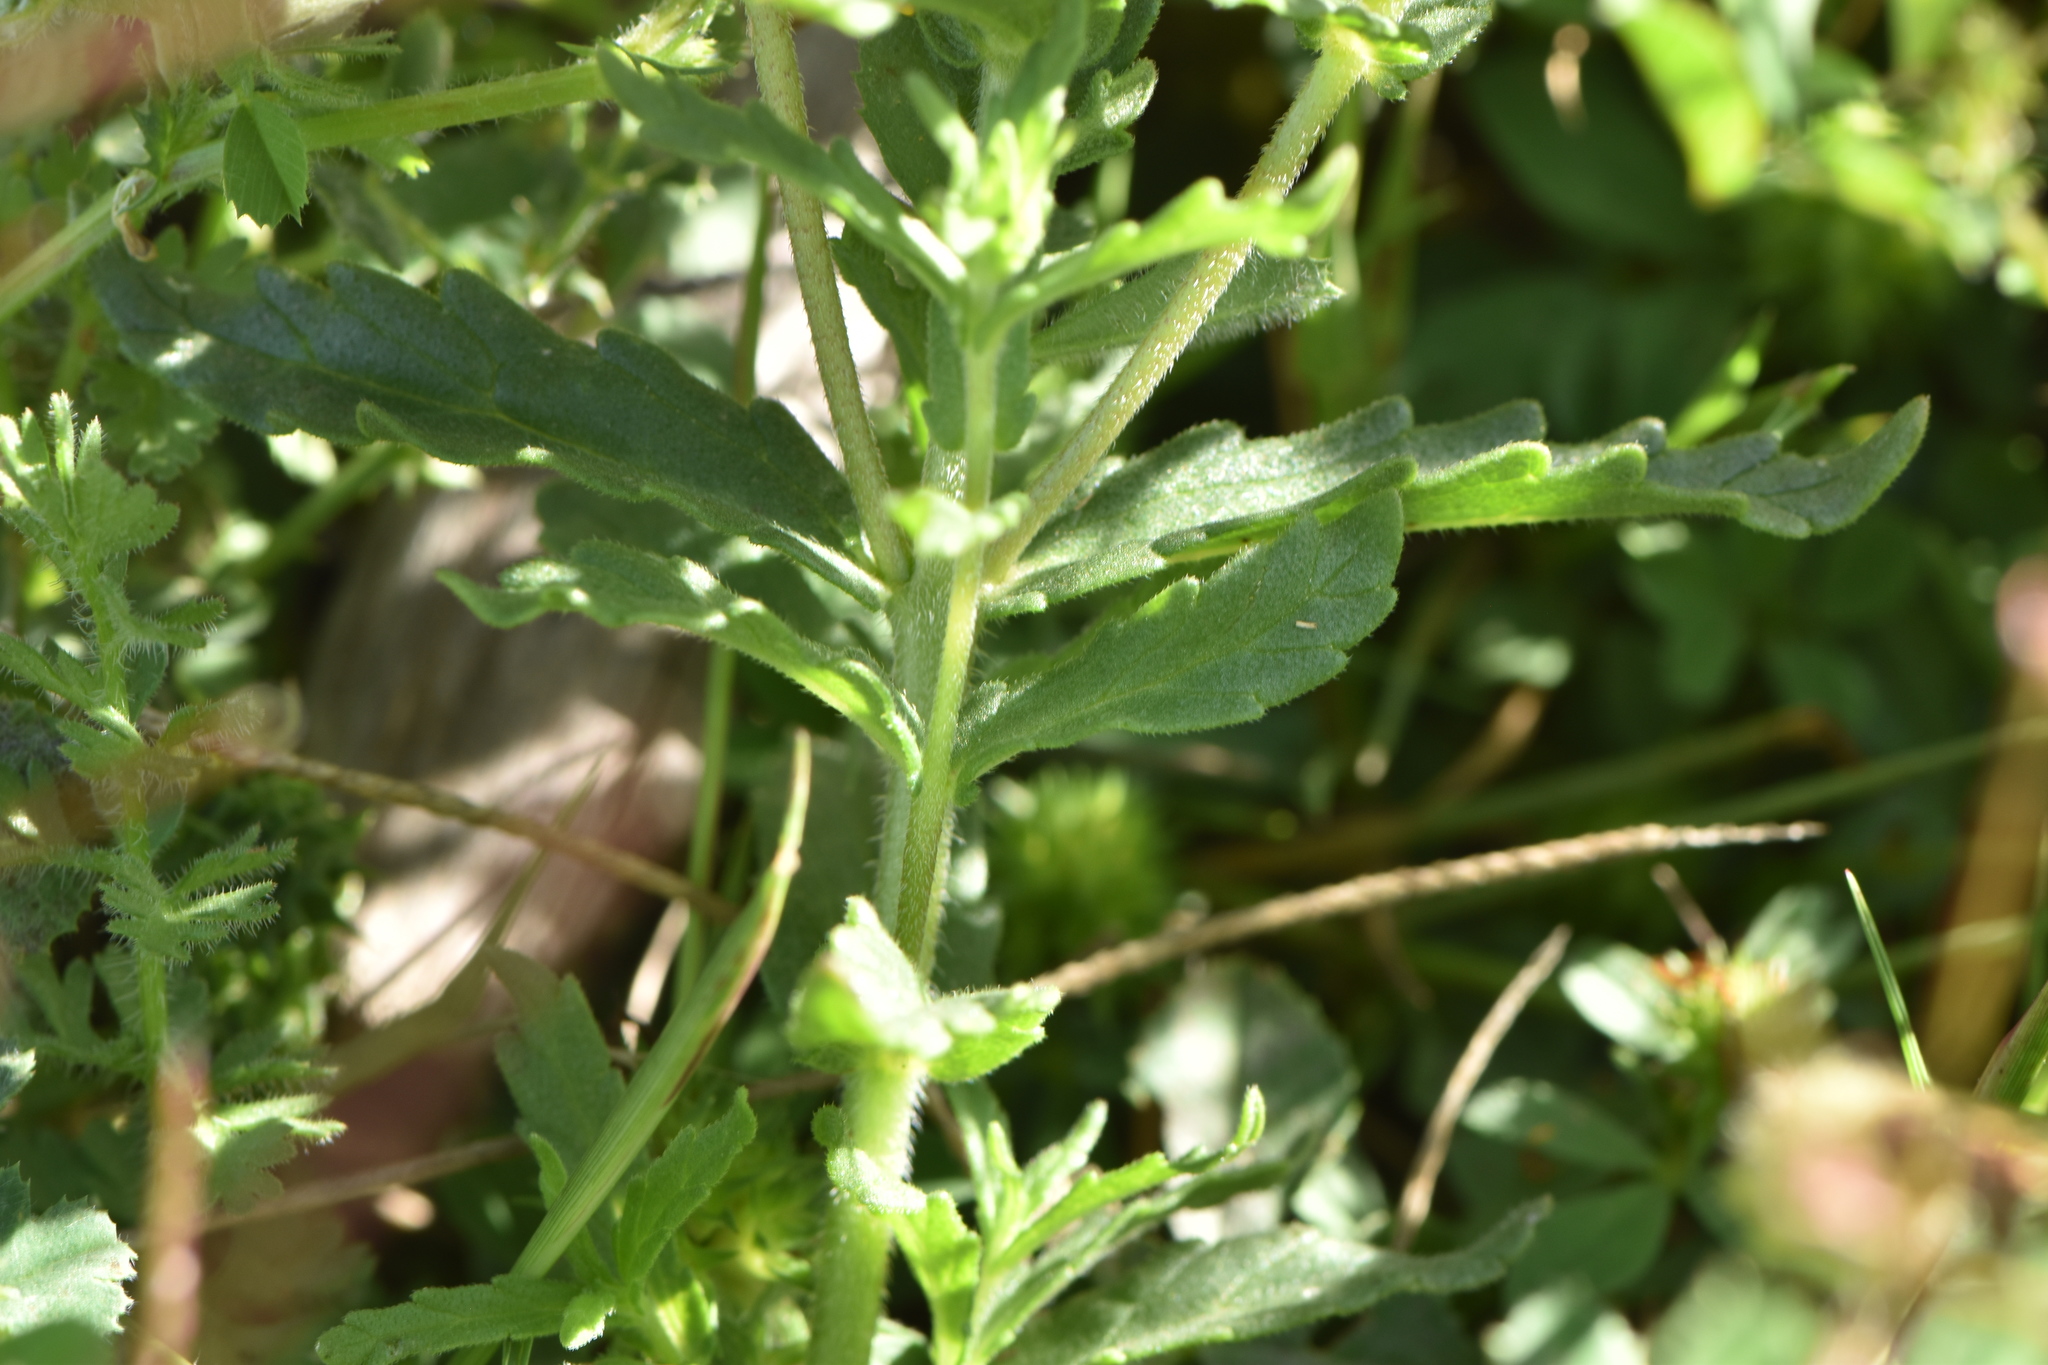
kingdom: Plantae
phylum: Tracheophyta
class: Magnoliopsida
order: Lamiales
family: Orobanchaceae
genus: Bellardia
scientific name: Bellardia trixago
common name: Mediterranean lineseed
